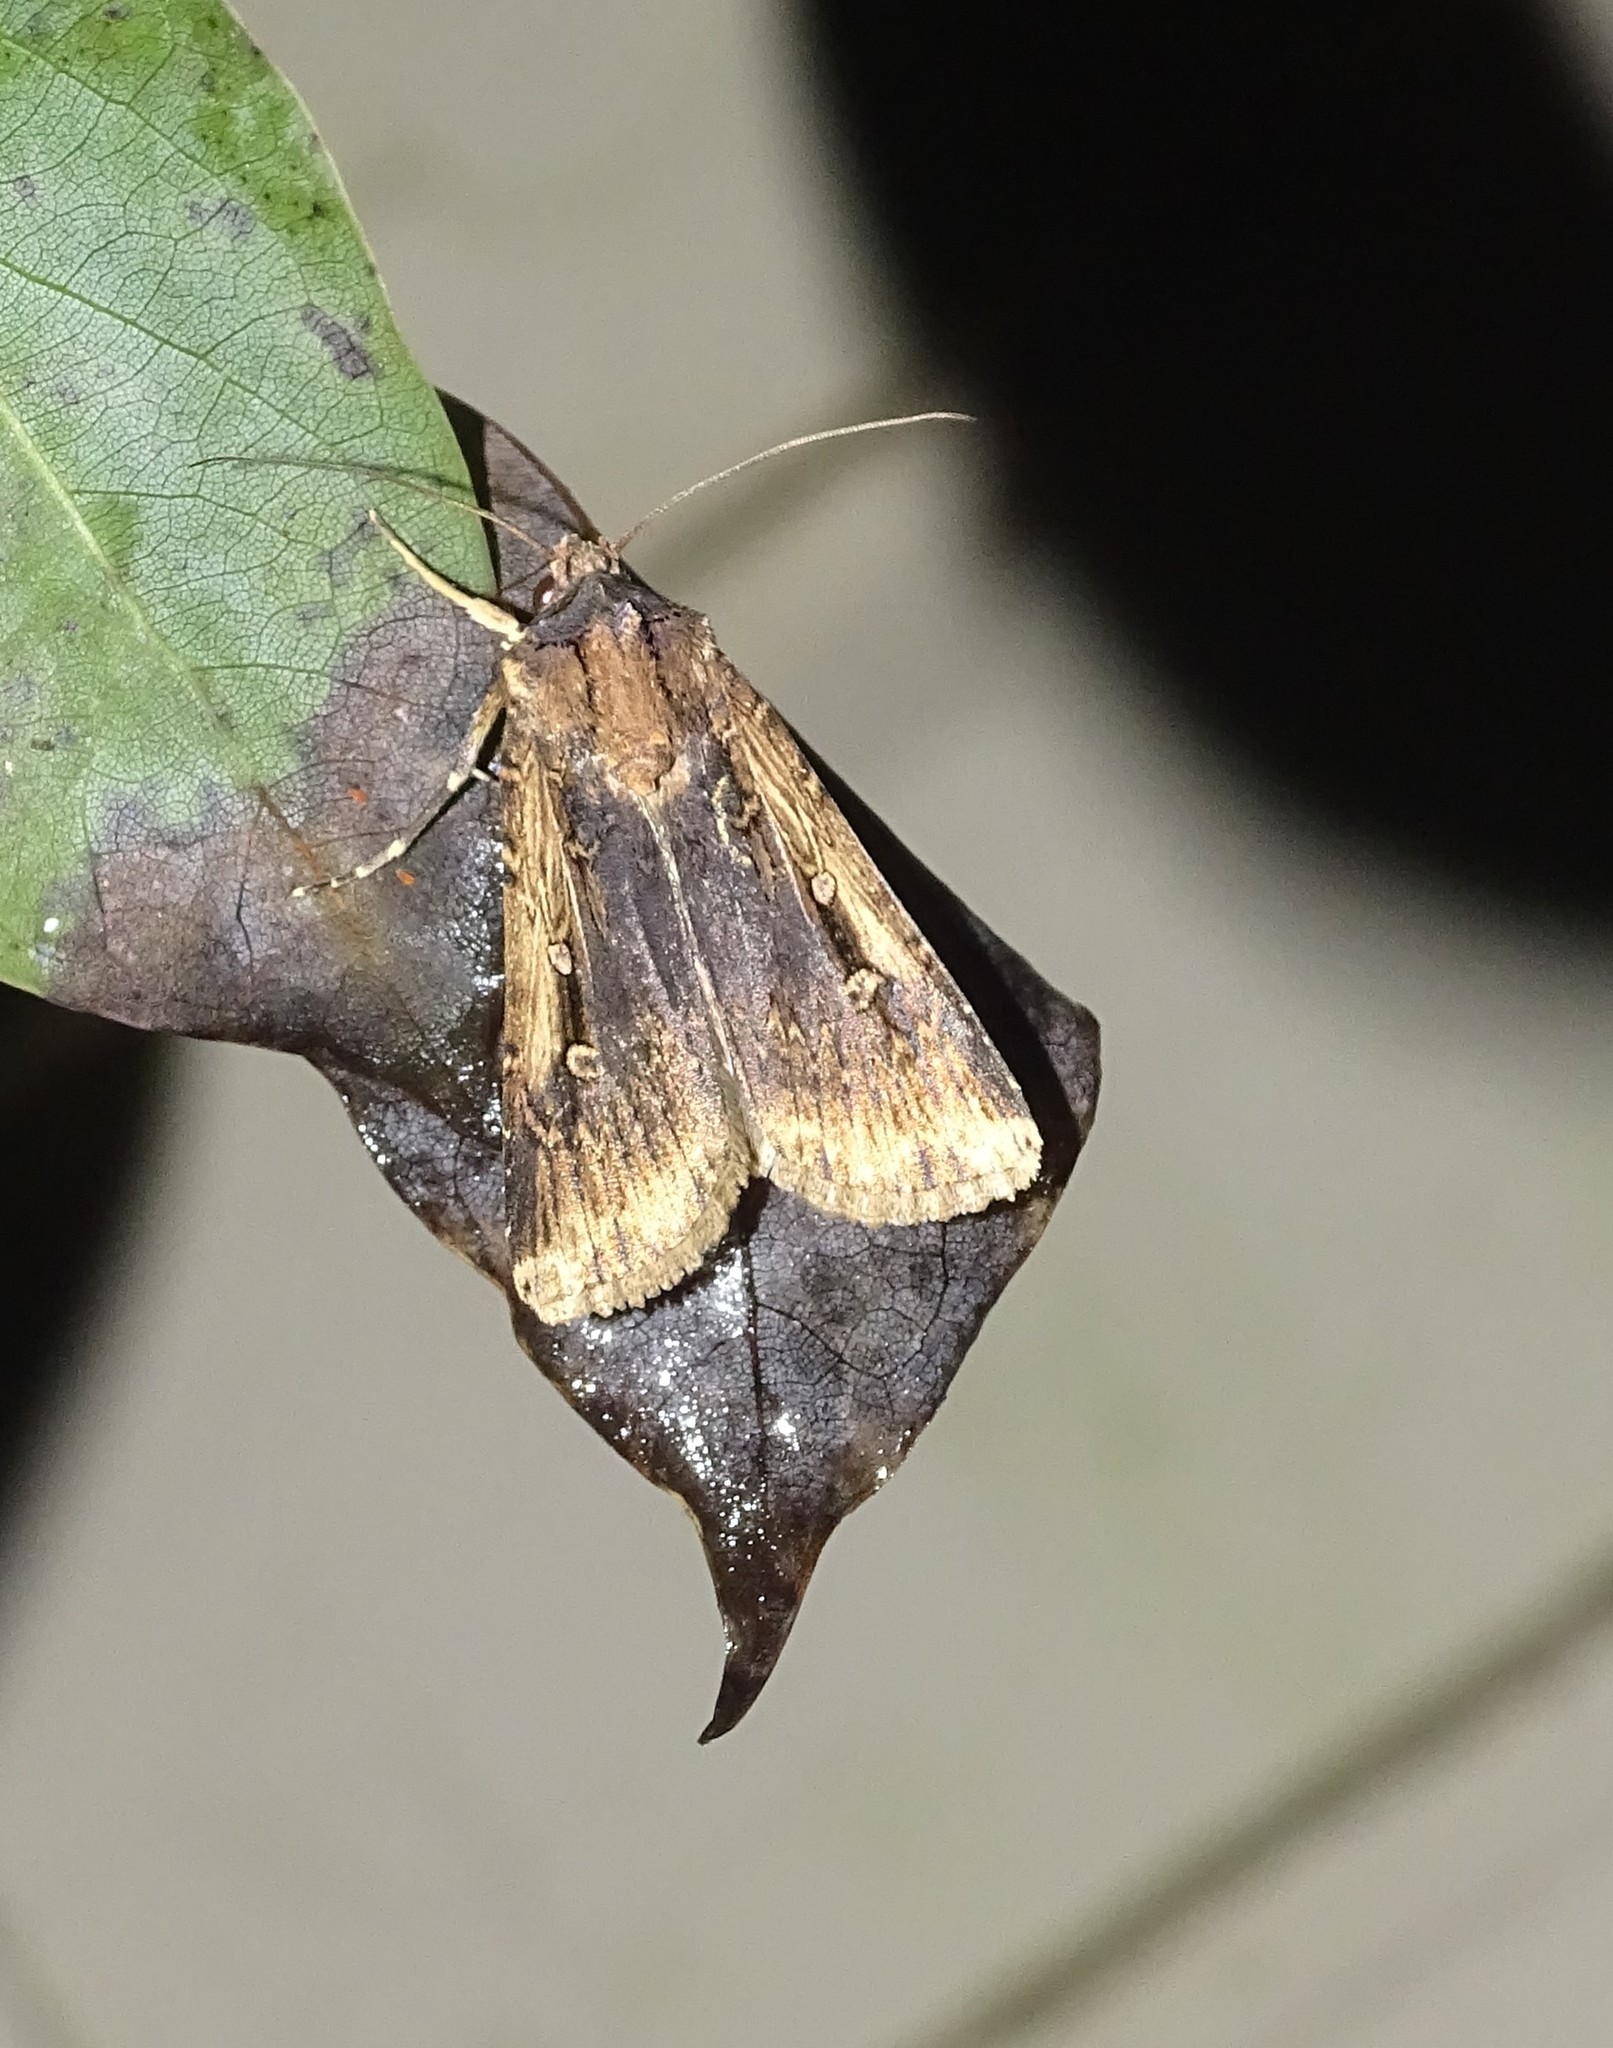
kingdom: Animalia
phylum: Arthropoda
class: Insecta
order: Lepidoptera
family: Noctuidae
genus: Feltia
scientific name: Feltia subterranea
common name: Granulate cutworm
